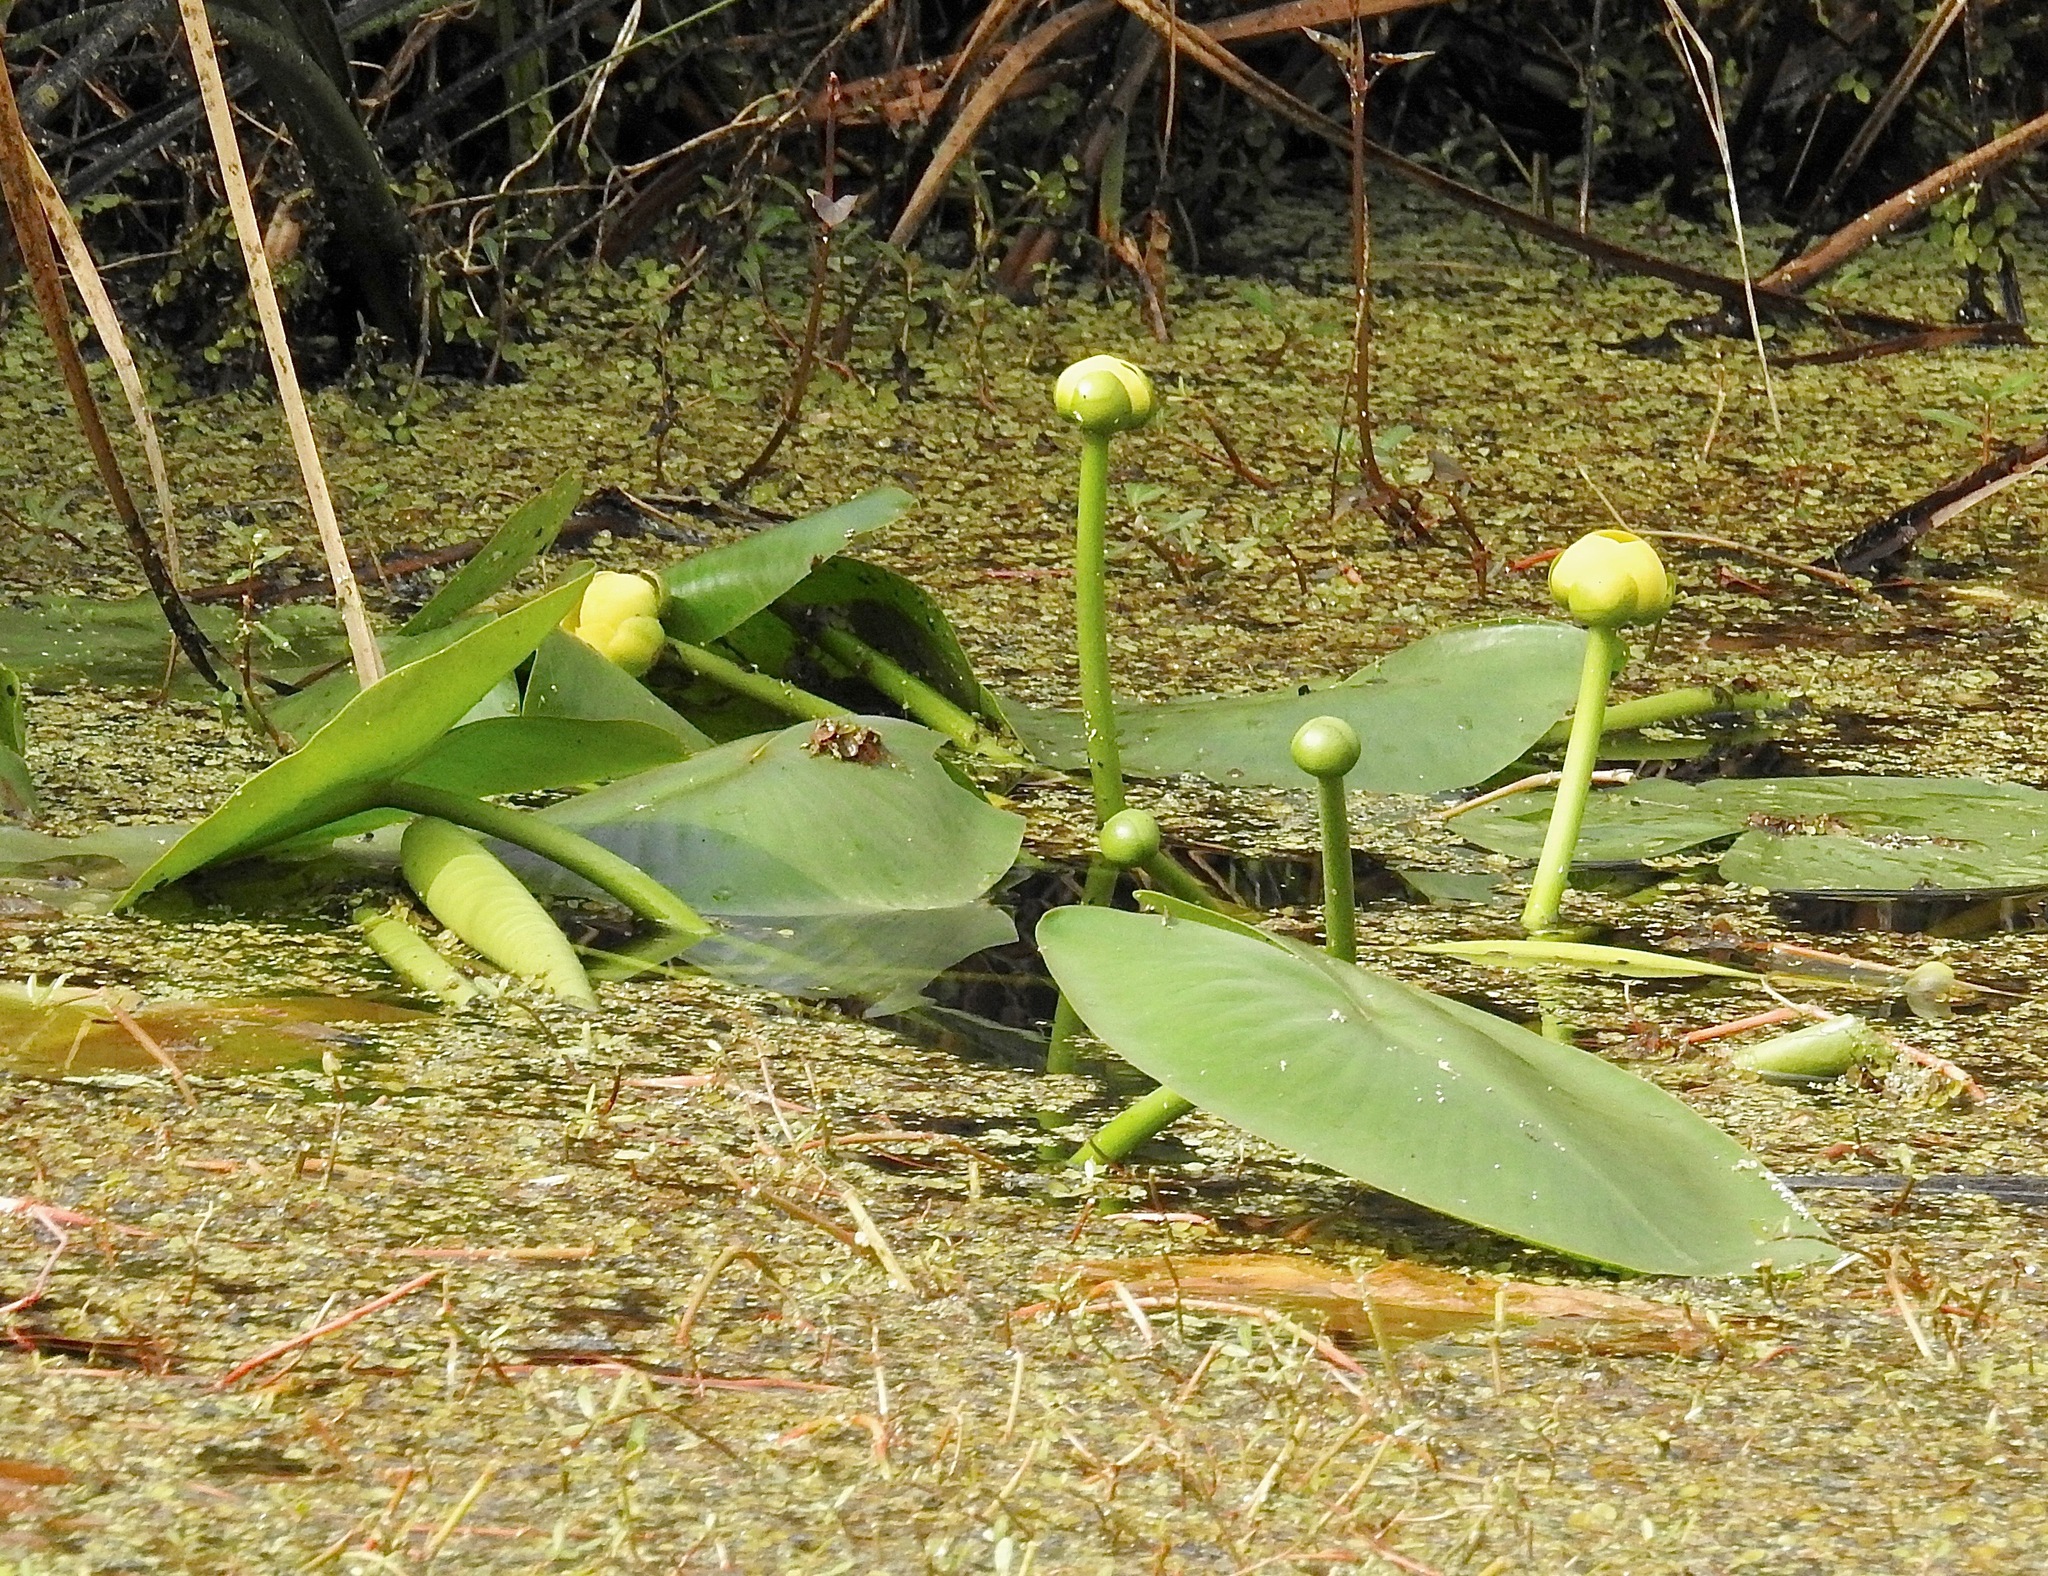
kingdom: Plantae
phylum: Tracheophyta
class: Magnoliopsida
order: Nymphaeales
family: Nymphaeaceae
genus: Nuphar
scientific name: Nuphar advena
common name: Spatter-dock
